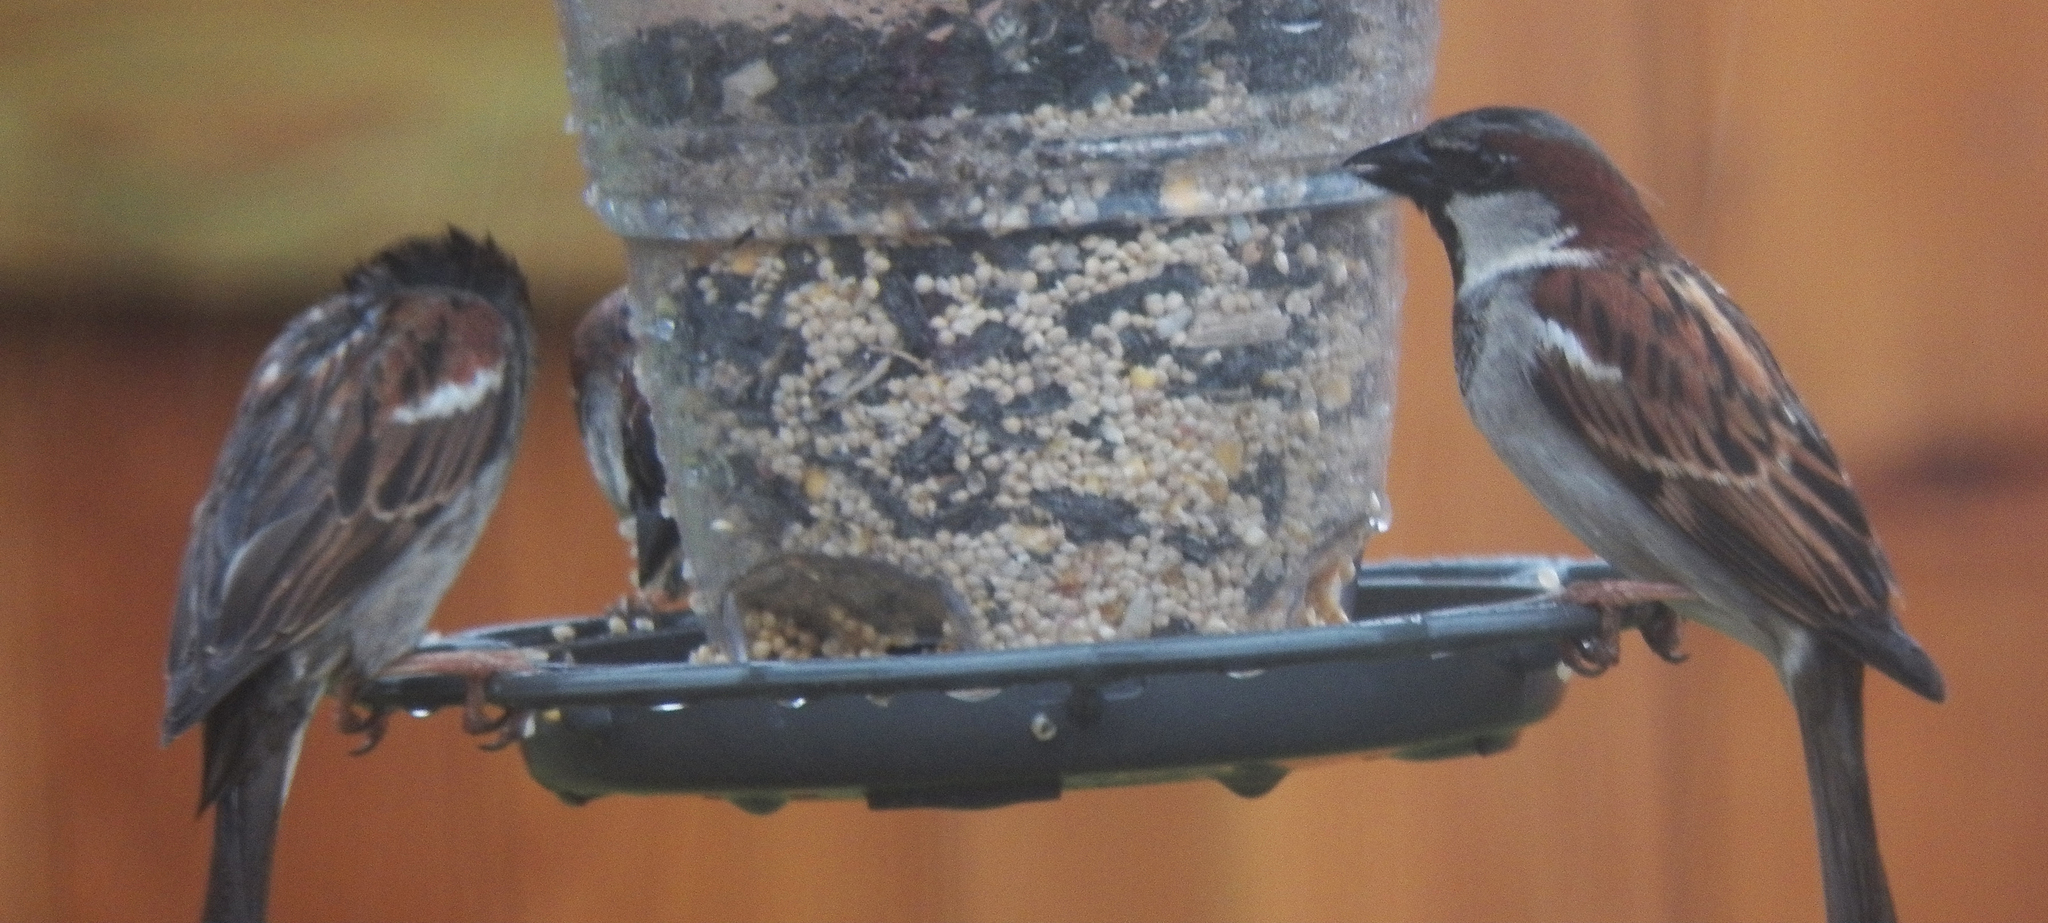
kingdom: Animalia
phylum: Chordata
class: Aves
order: Passeriformes
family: Passeridae
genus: Passer
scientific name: Passer domesticus
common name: House sparrow
